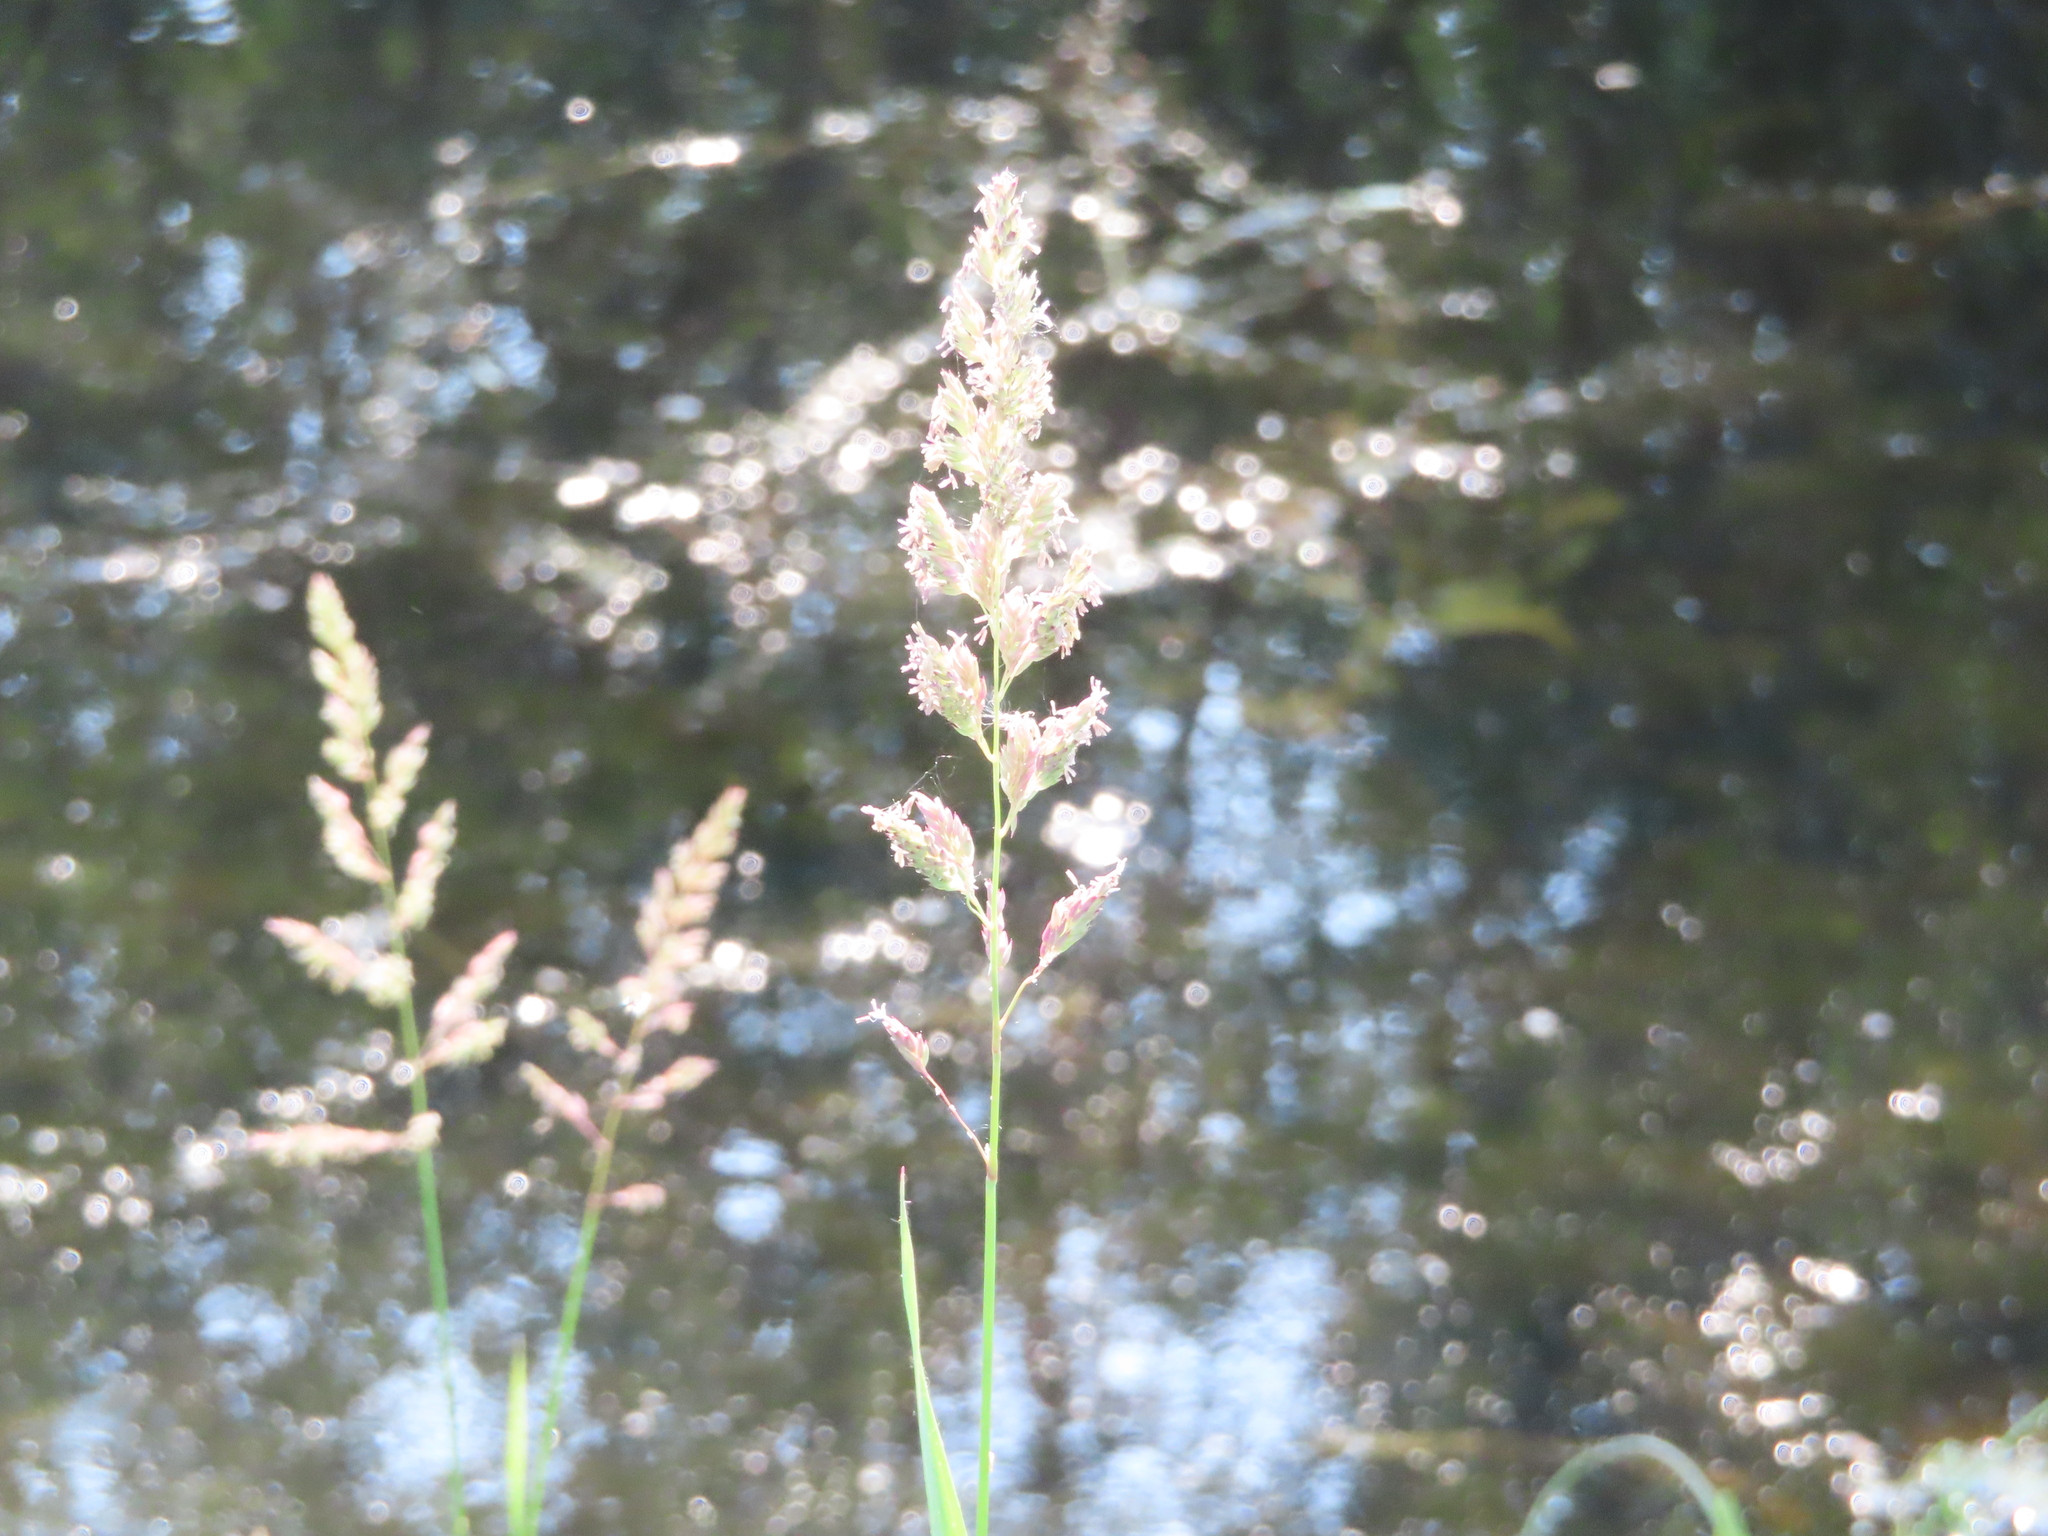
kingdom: Plantae
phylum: Tracheophyta
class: Liliopsida
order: Poales
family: Poaceae
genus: Phalaris
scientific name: Phalaris arundinacea
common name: Reed canary-grass
